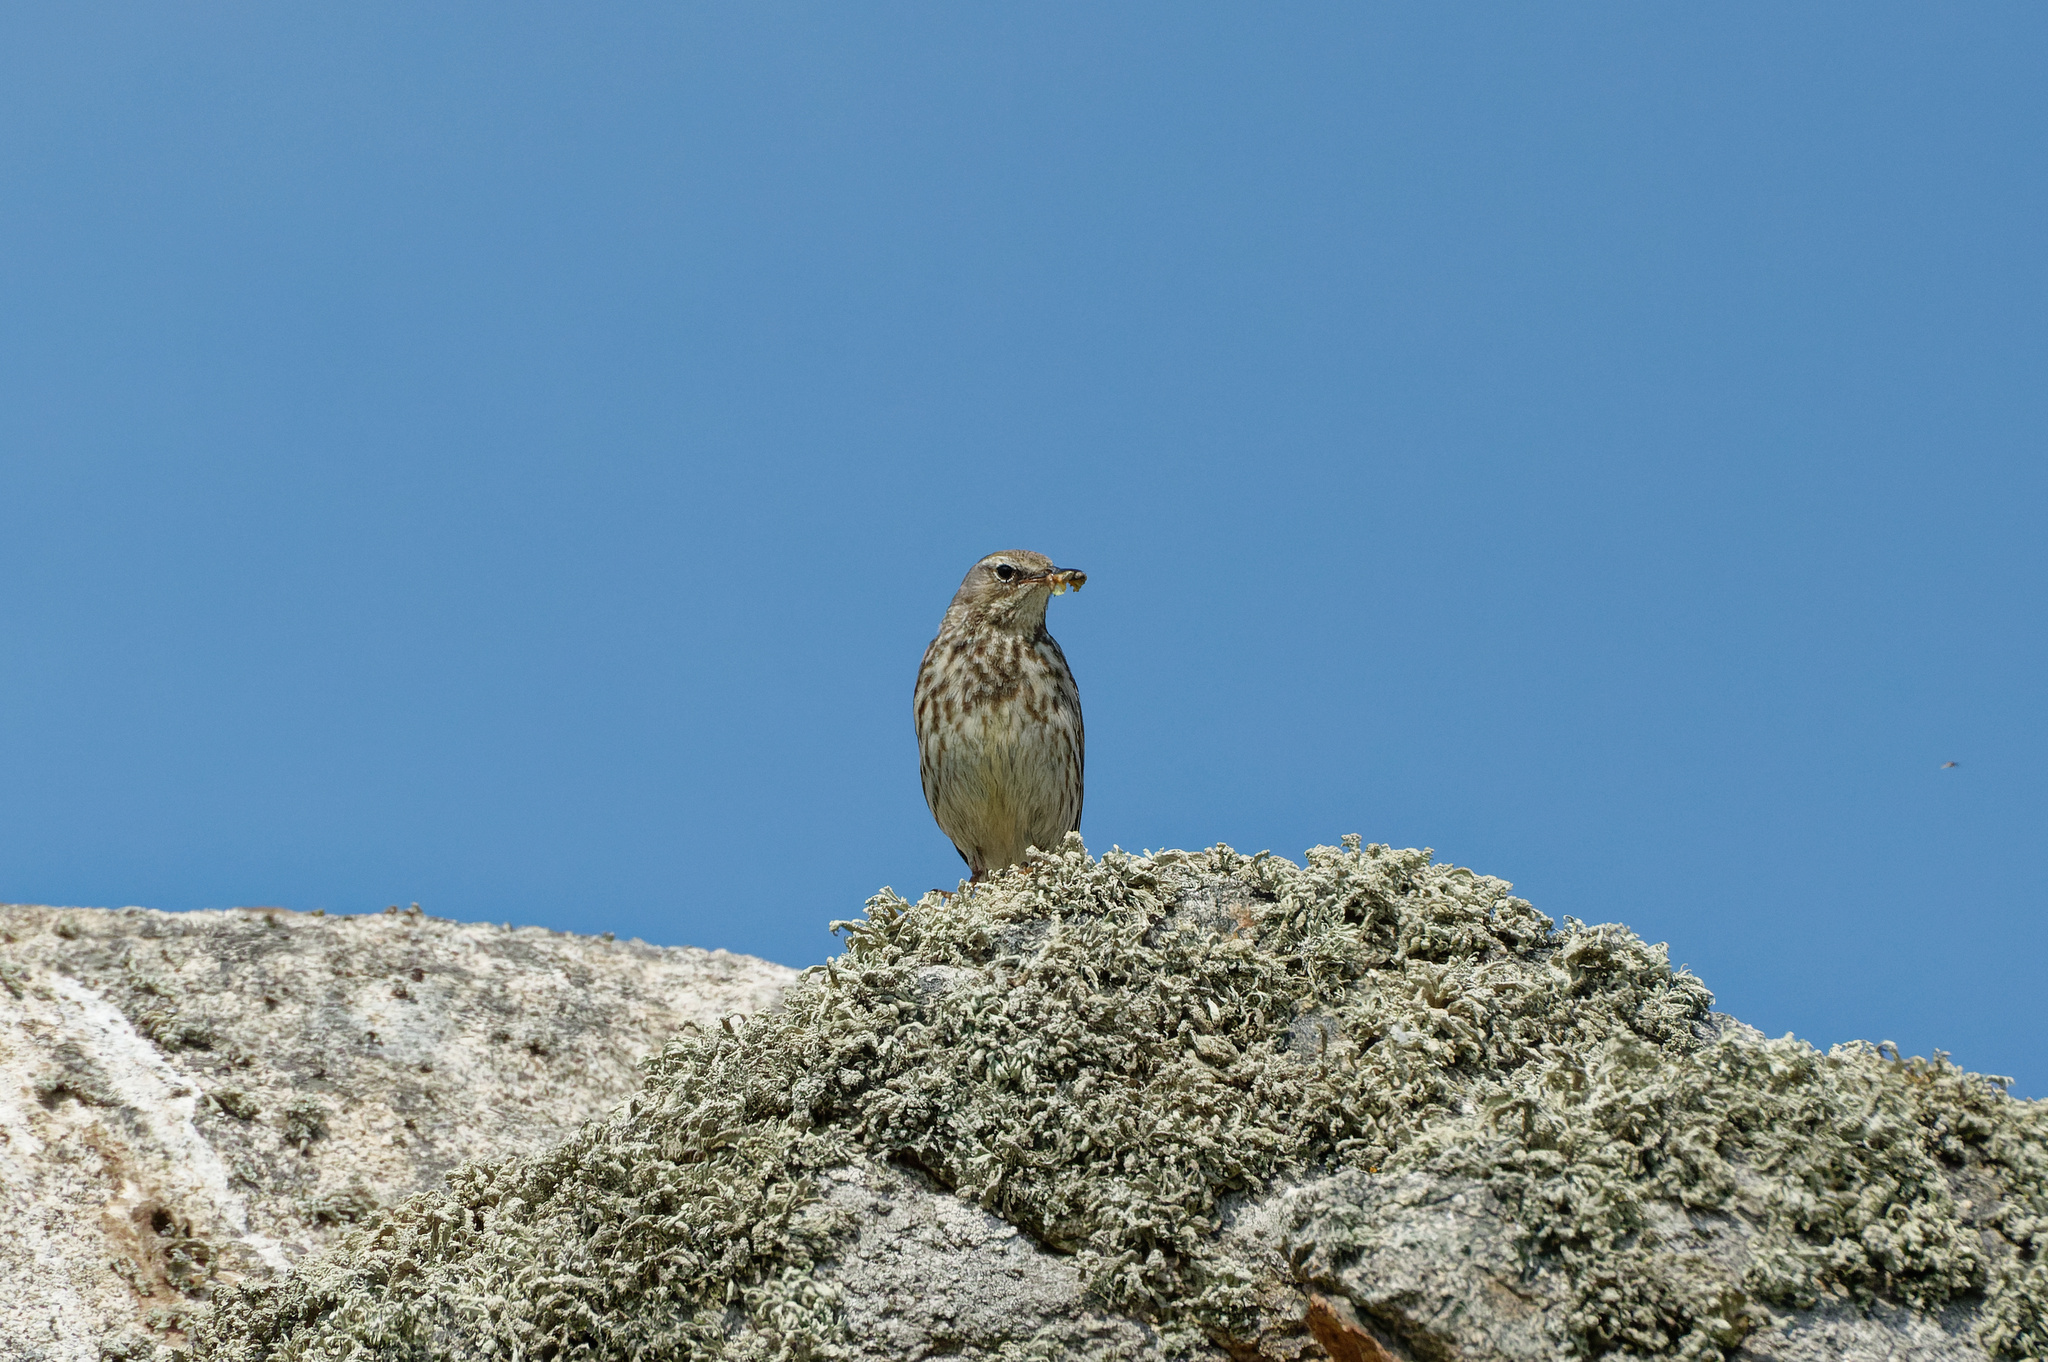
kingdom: Animalia
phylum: Chordata
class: Aves
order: Passeriformes
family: Motacillidae
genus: Anthus
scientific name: Anthus petrosus
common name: Eurasian rock pipit
